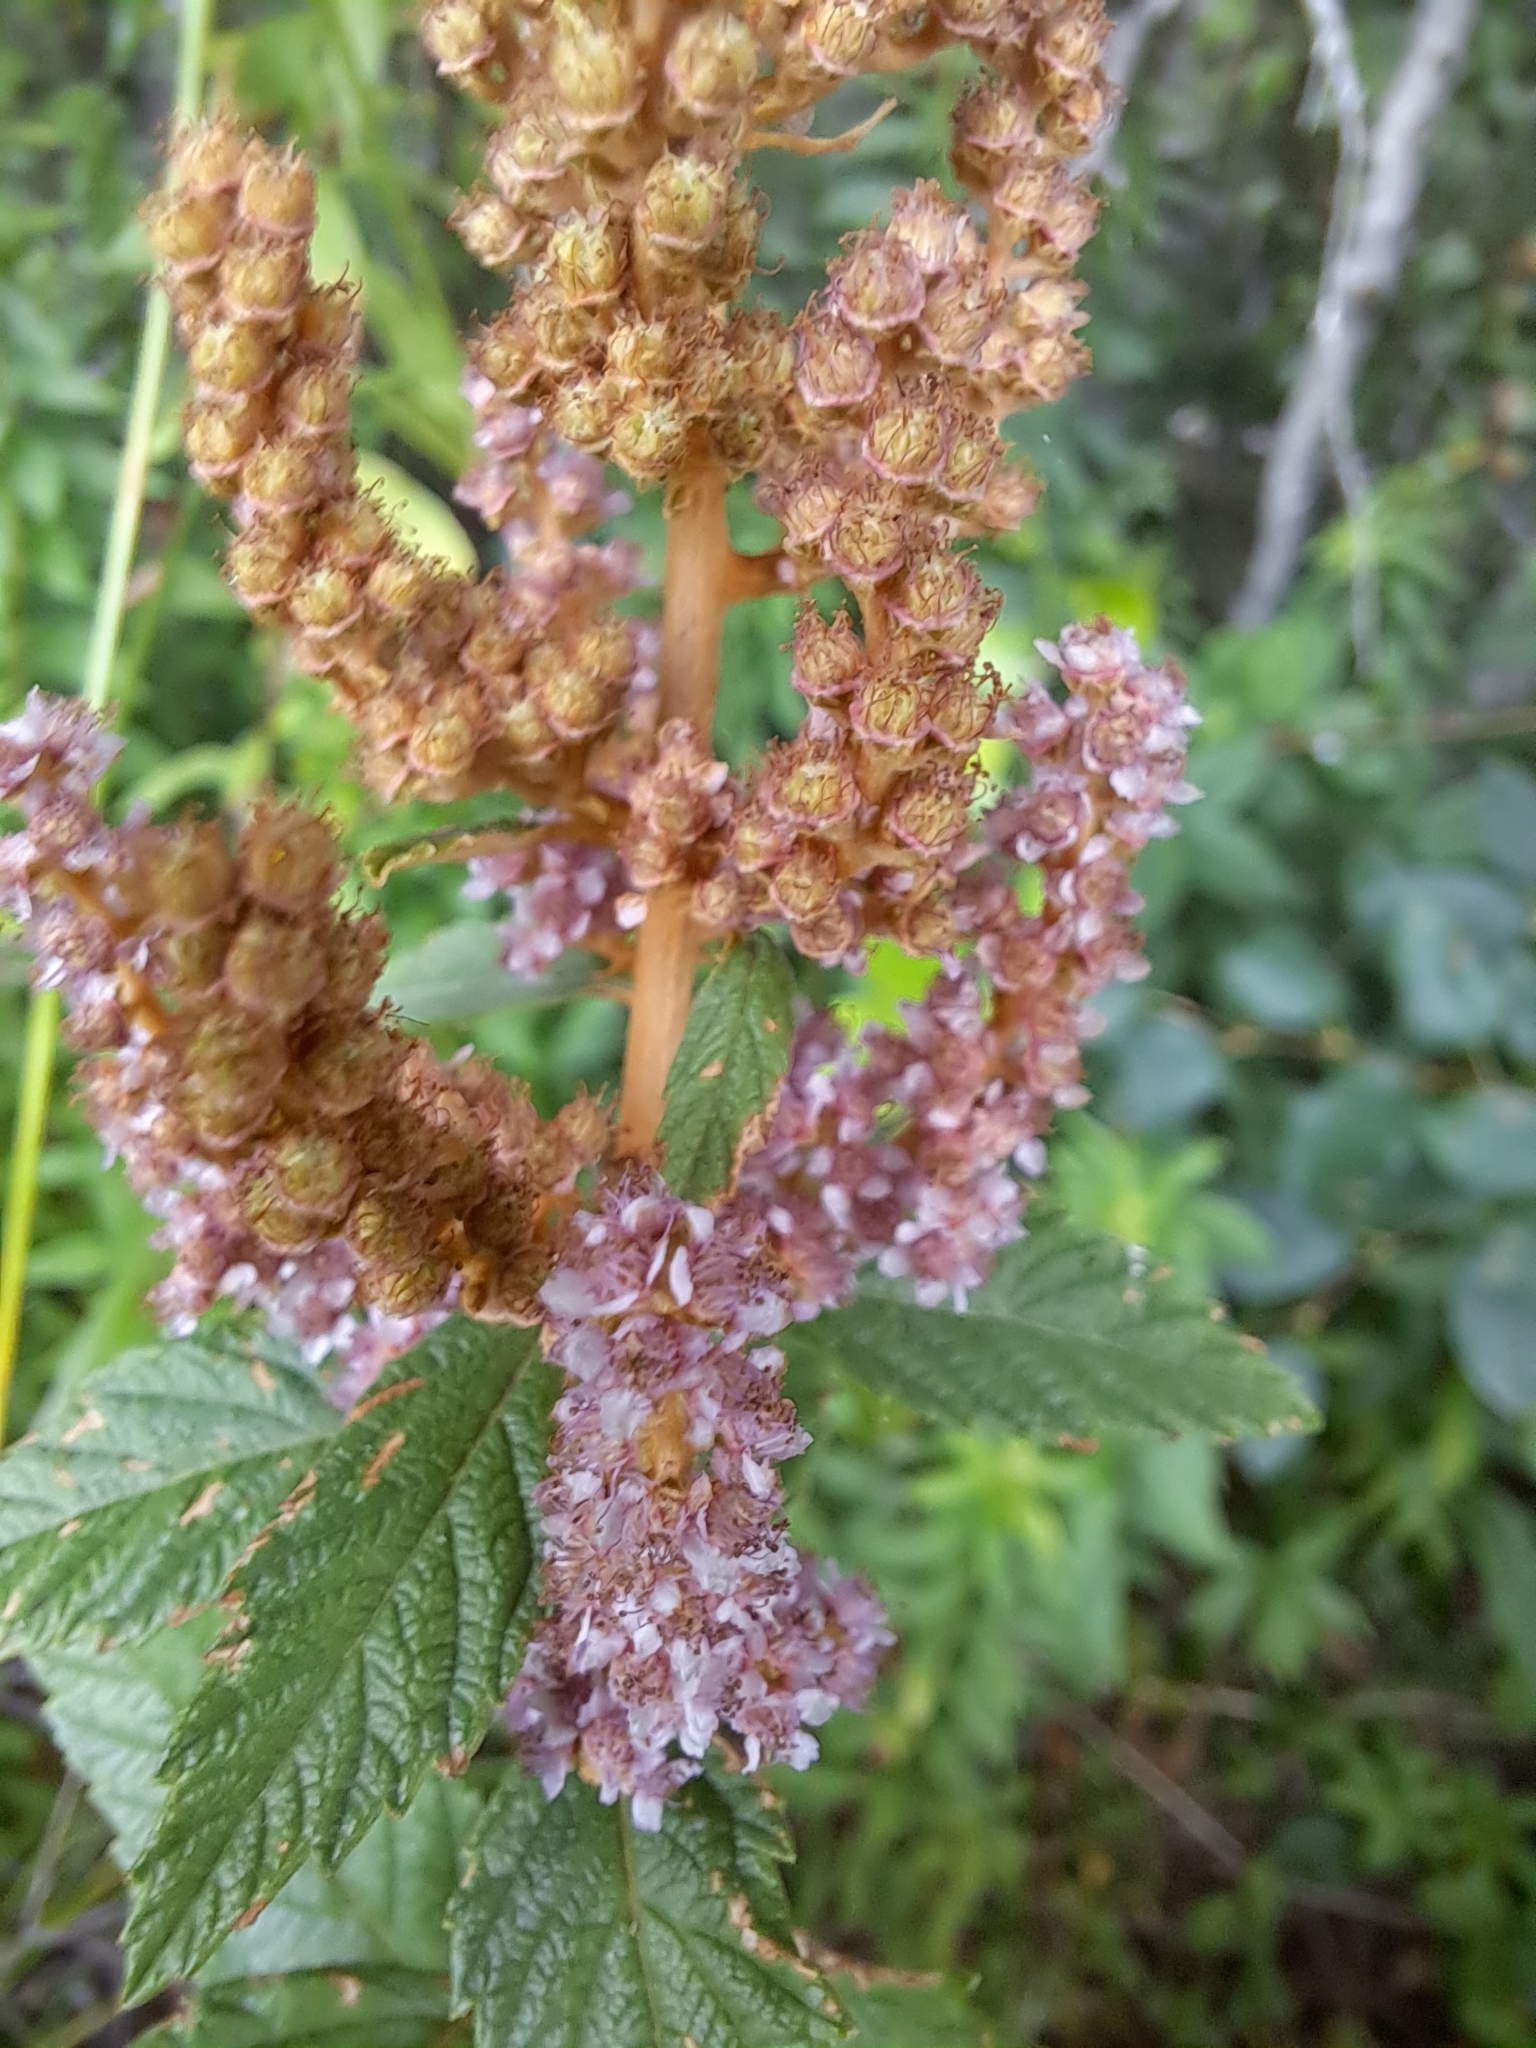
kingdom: Plantae
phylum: Tracheophyta
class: Magnoliopsida
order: Rosales
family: Rosaceae
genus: Spiraea
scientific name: Spiraea tomentosa
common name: Hardhack
